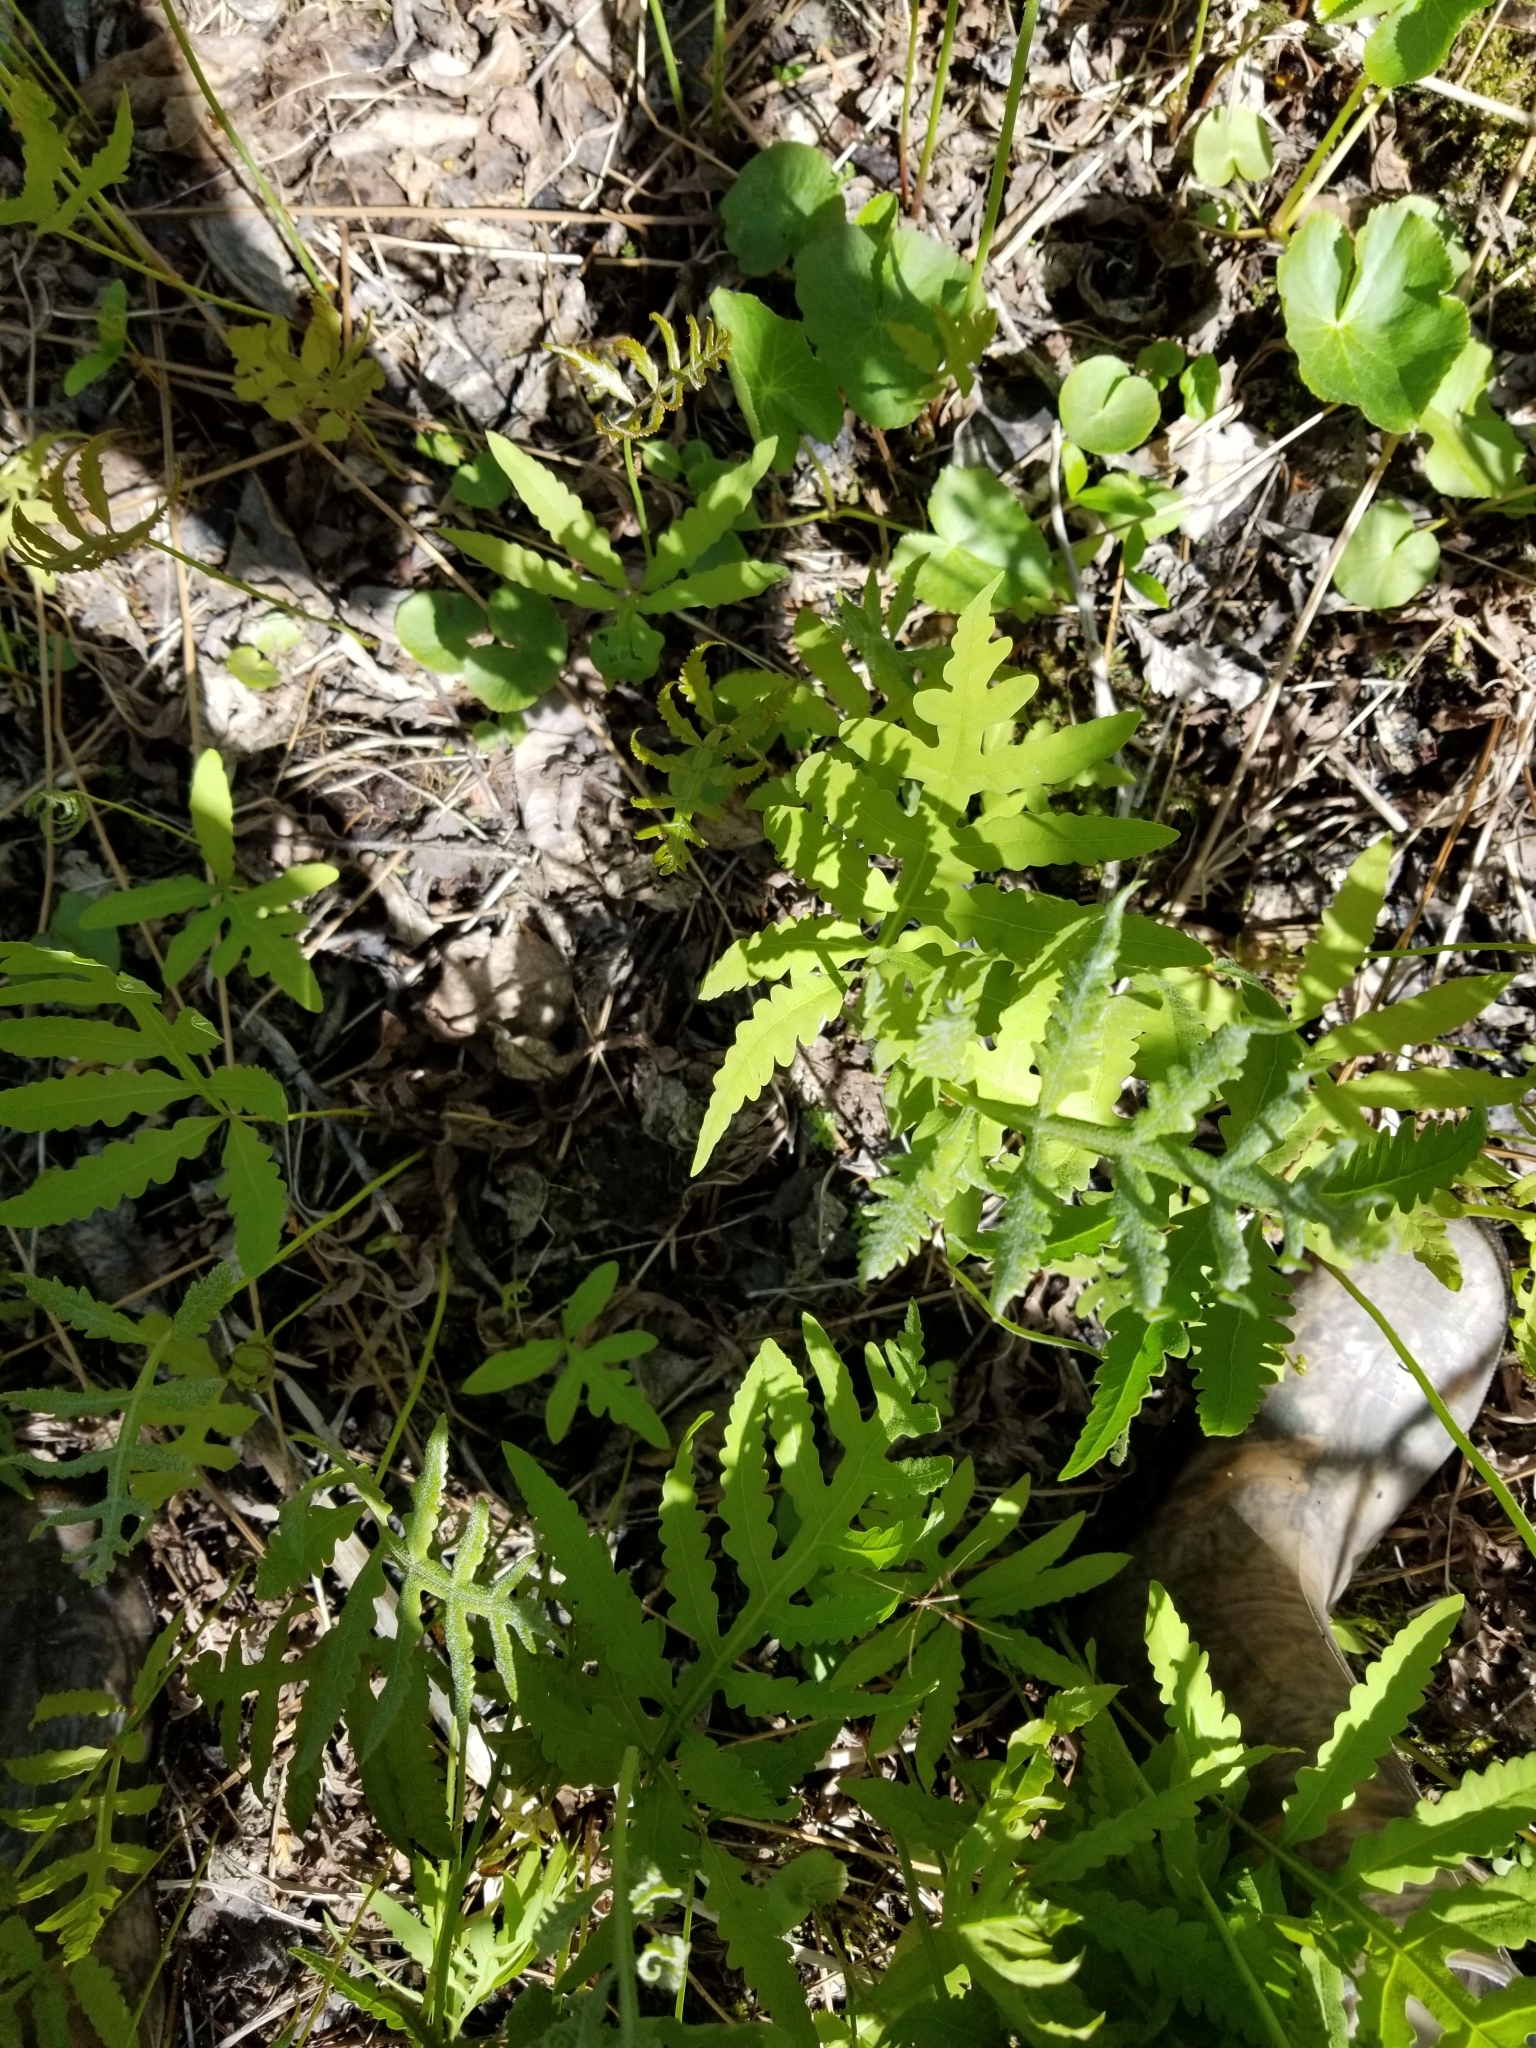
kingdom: Plantae
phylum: Tracheophyta
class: Polypodiopsida
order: Polypodiales
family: Onocleaceae
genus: Onoclea
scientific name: Onoclea sensibilis
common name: Sensitive fern
